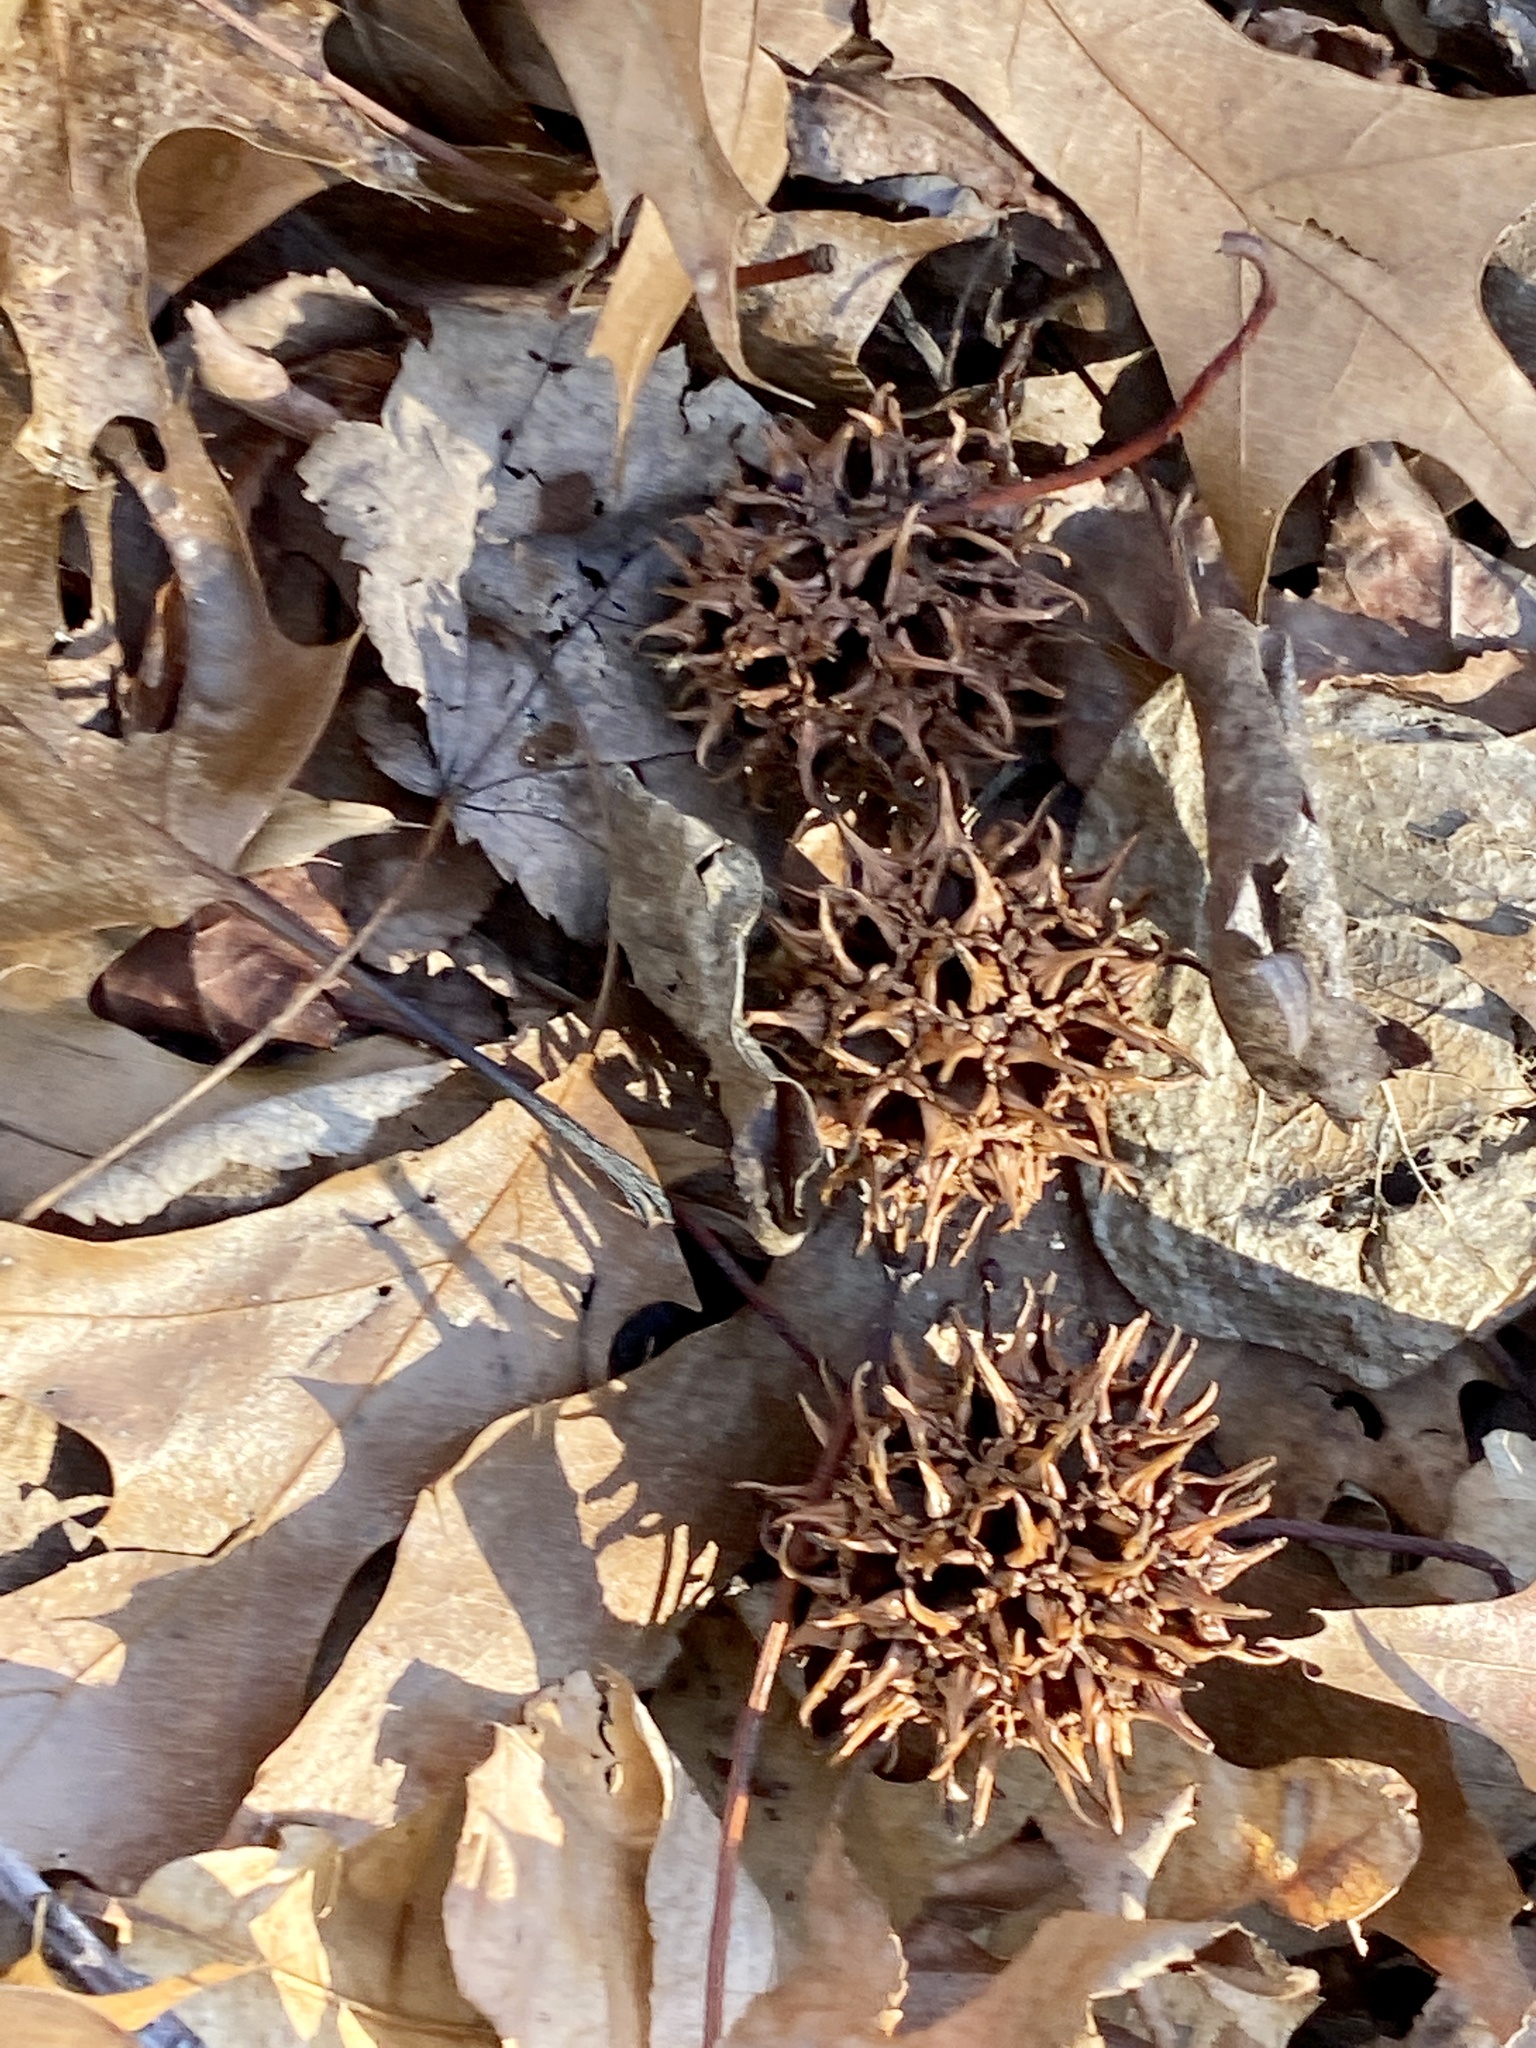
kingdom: Plantae
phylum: Tracheophyta
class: Magnoliopsida
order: Saxifragales
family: Altingiaceae
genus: Liquidambar
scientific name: Liquidambar styraciflua
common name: Sweet gum
